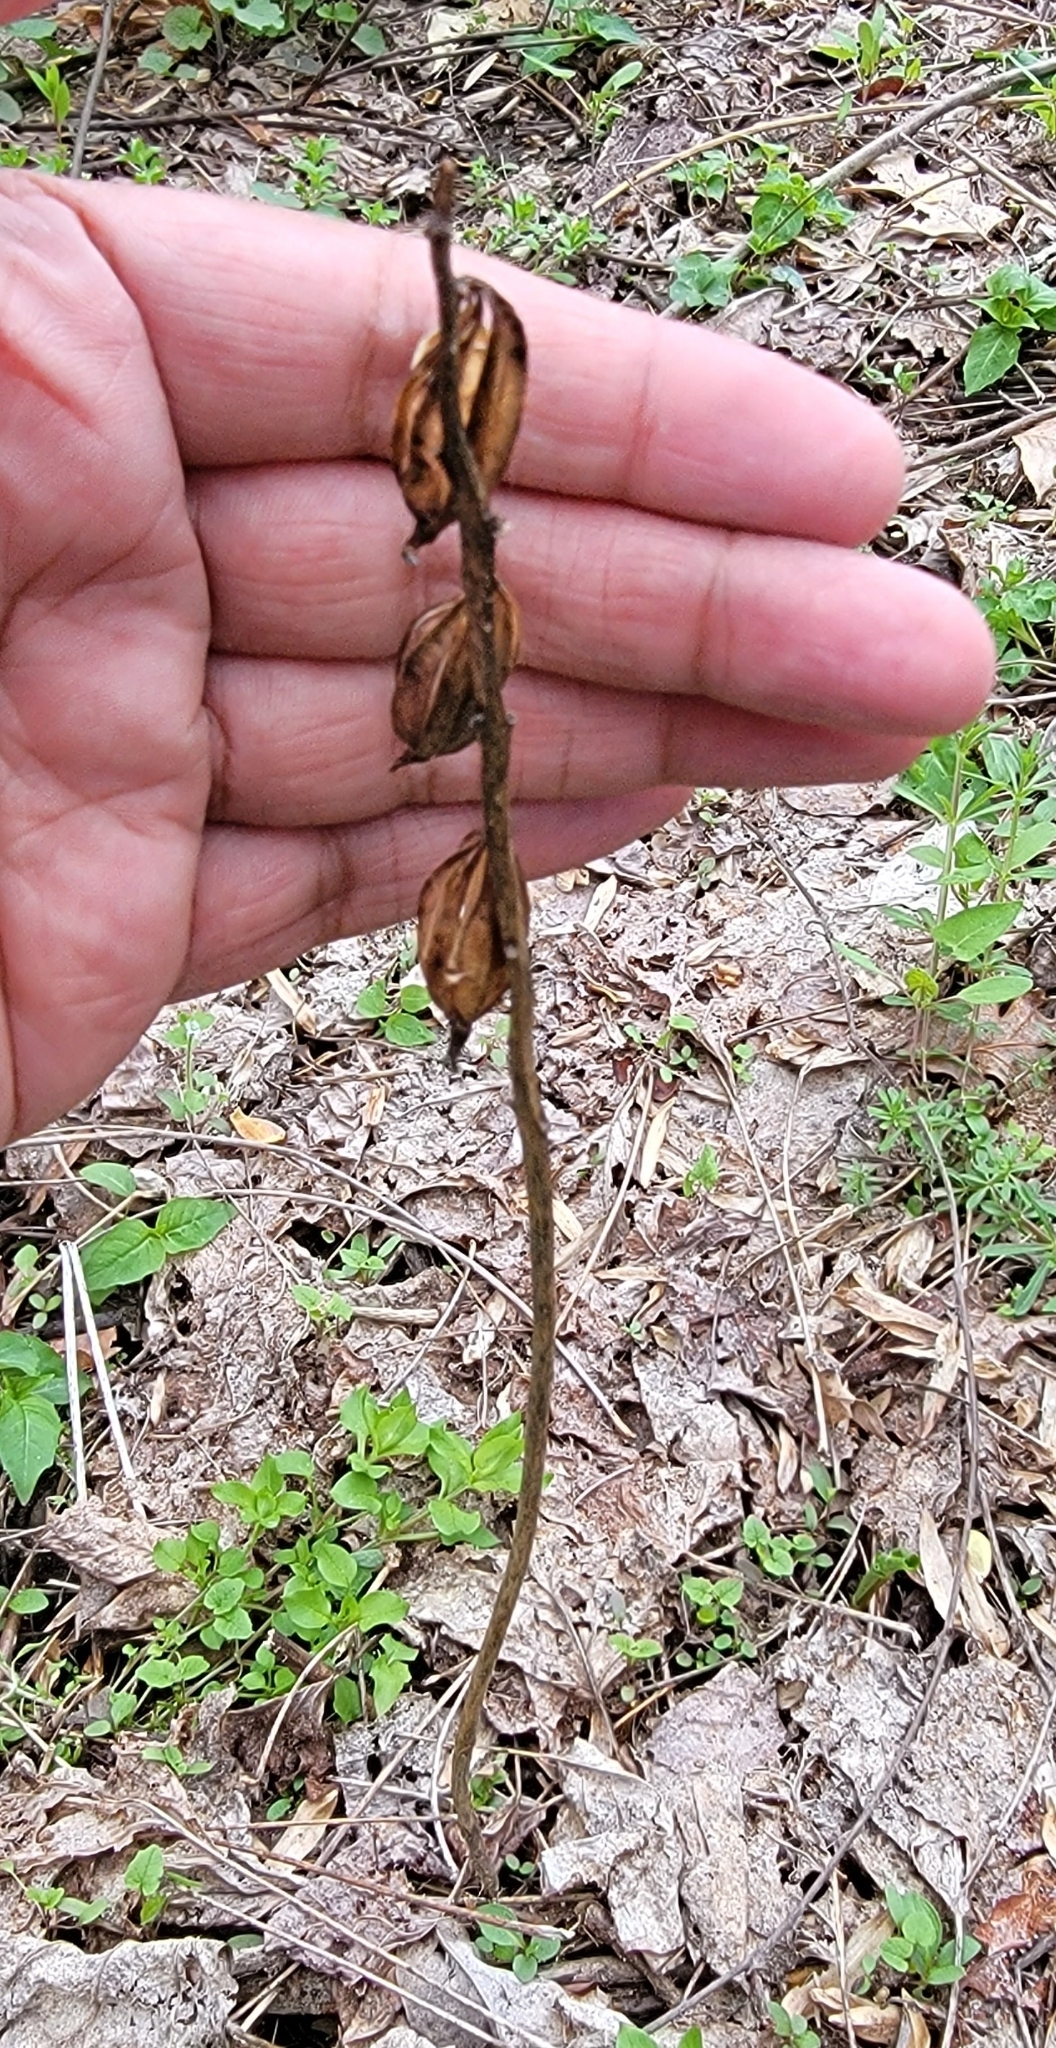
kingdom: Plantae
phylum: Tracheophyta
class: Liliopsida
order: Asparagales
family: Orchidaceae
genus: Aplectrum
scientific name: Aplectrum hyemale
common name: Adam-and-eve
